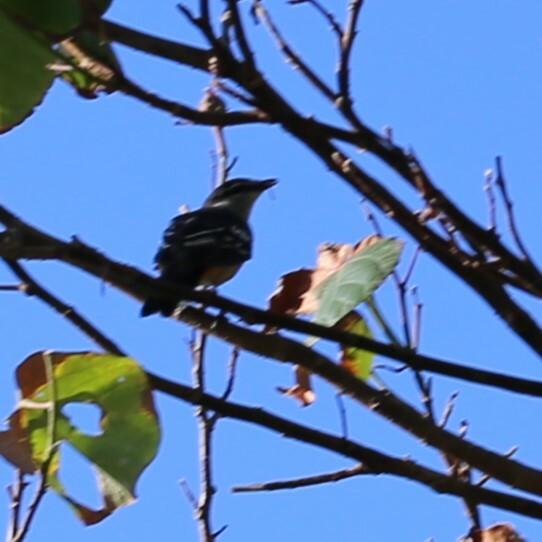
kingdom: Animalia
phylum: Chordata
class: Aves
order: Passeriformes
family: Campephagidae
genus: Lalage
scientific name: Lalage leucomela
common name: Varied triller
